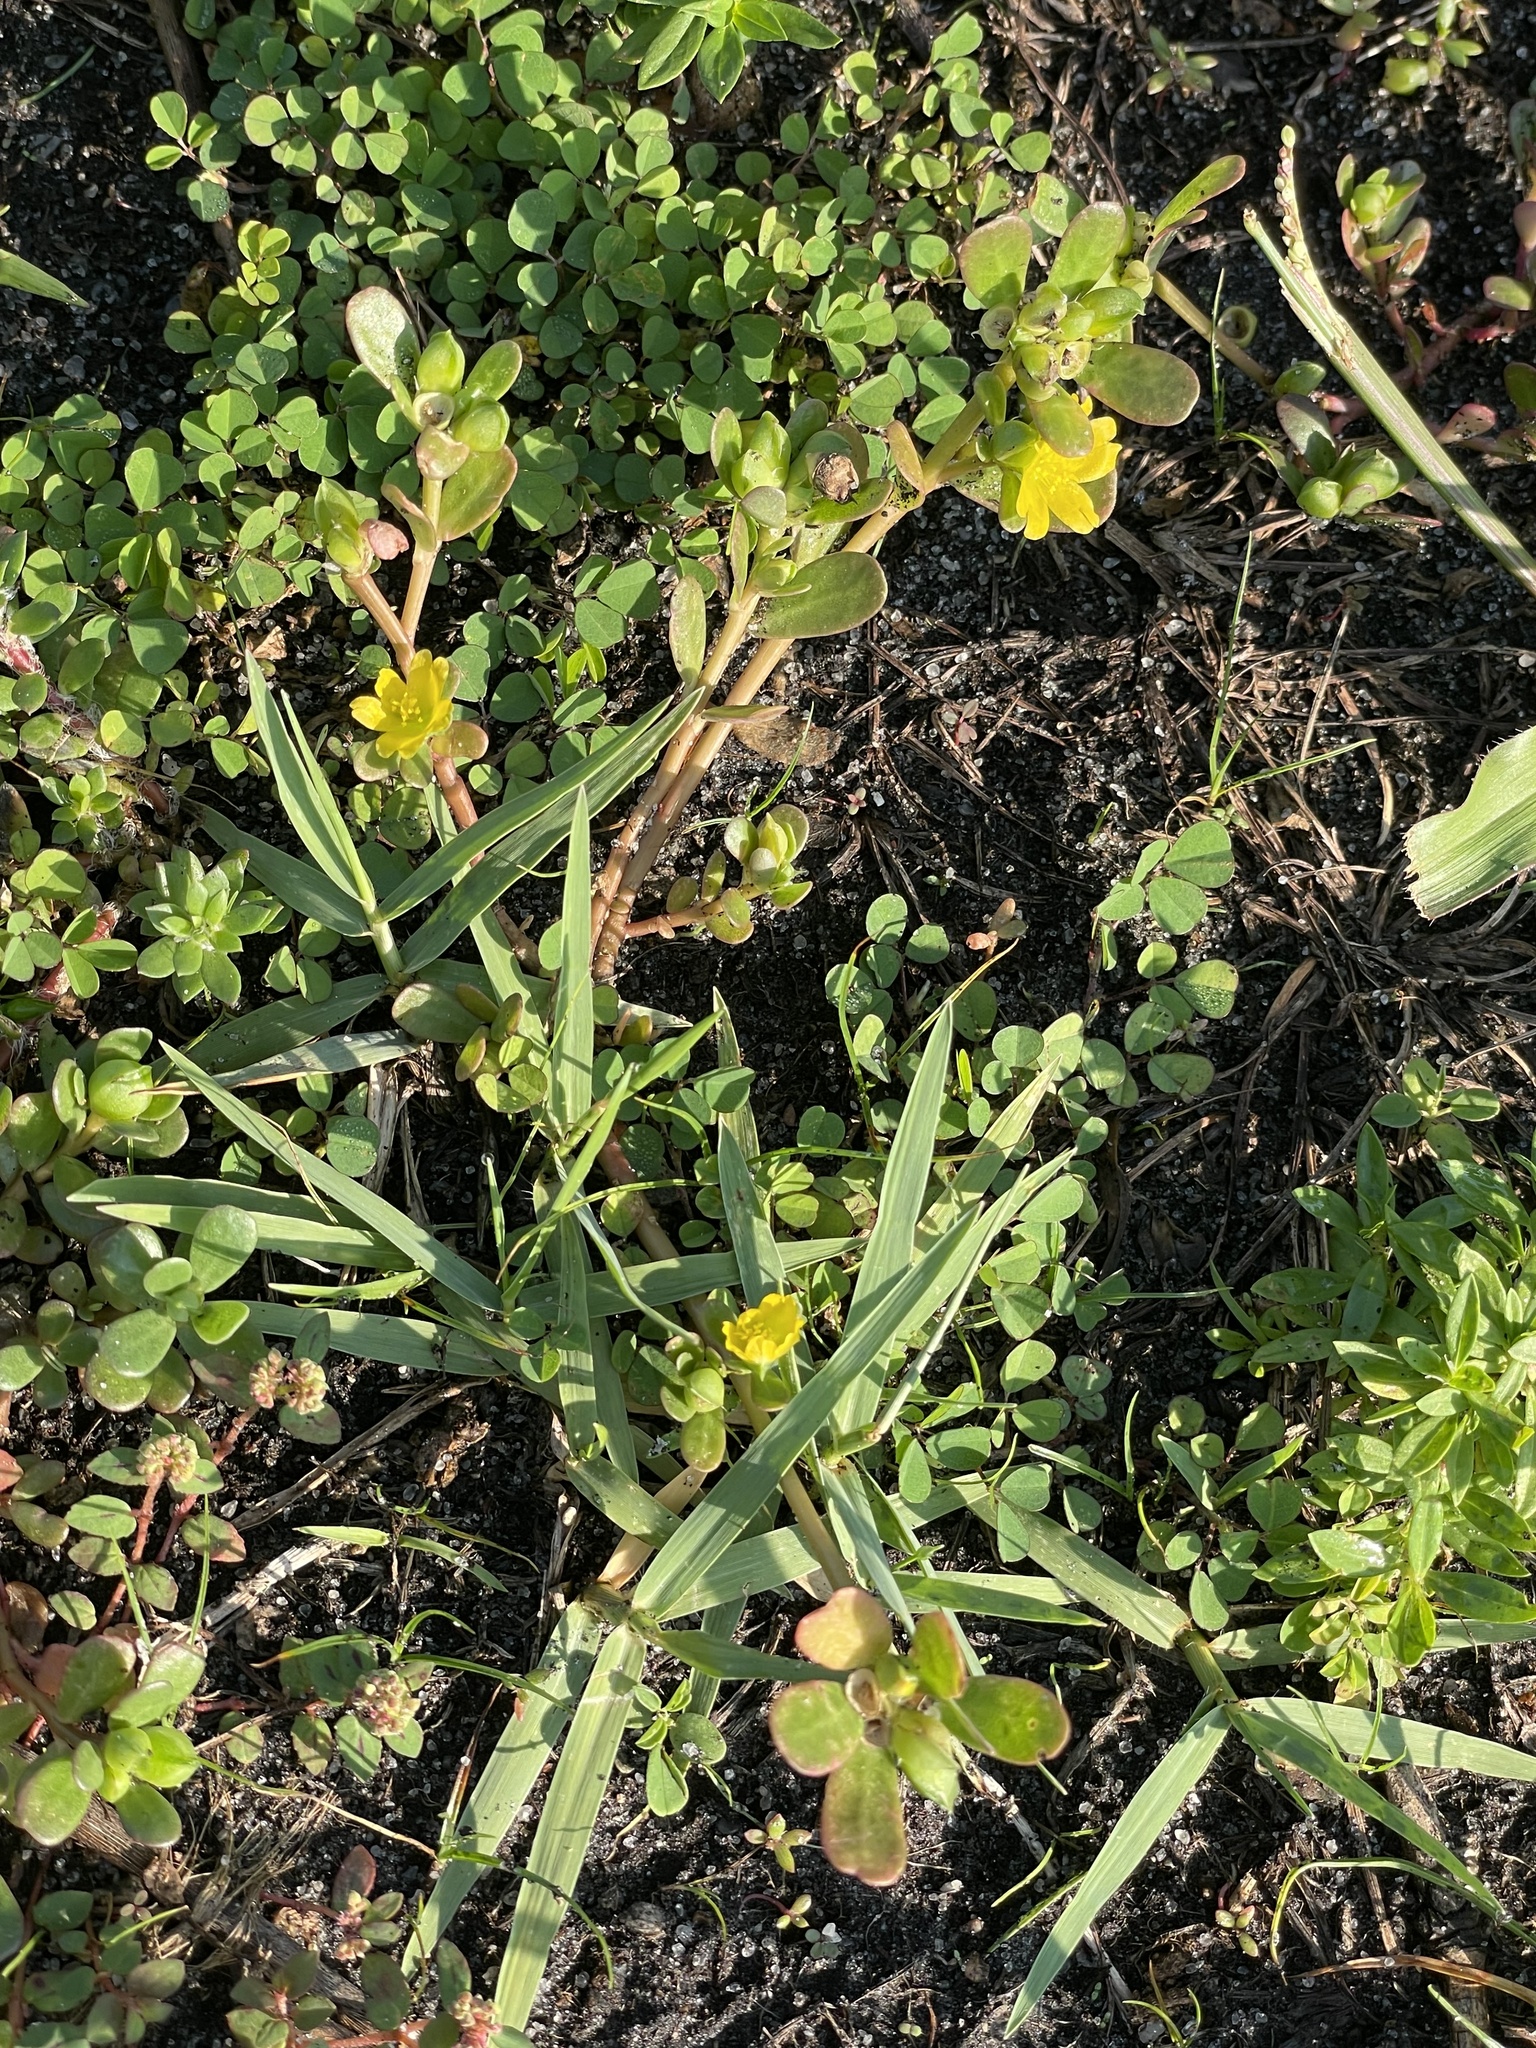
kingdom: Plantae
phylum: Tracheophyta
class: Magnoliopsida
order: Caryophyllales
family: Portulacaceae
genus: Portulaca
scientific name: Portulaca oleracea
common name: Common purslane
